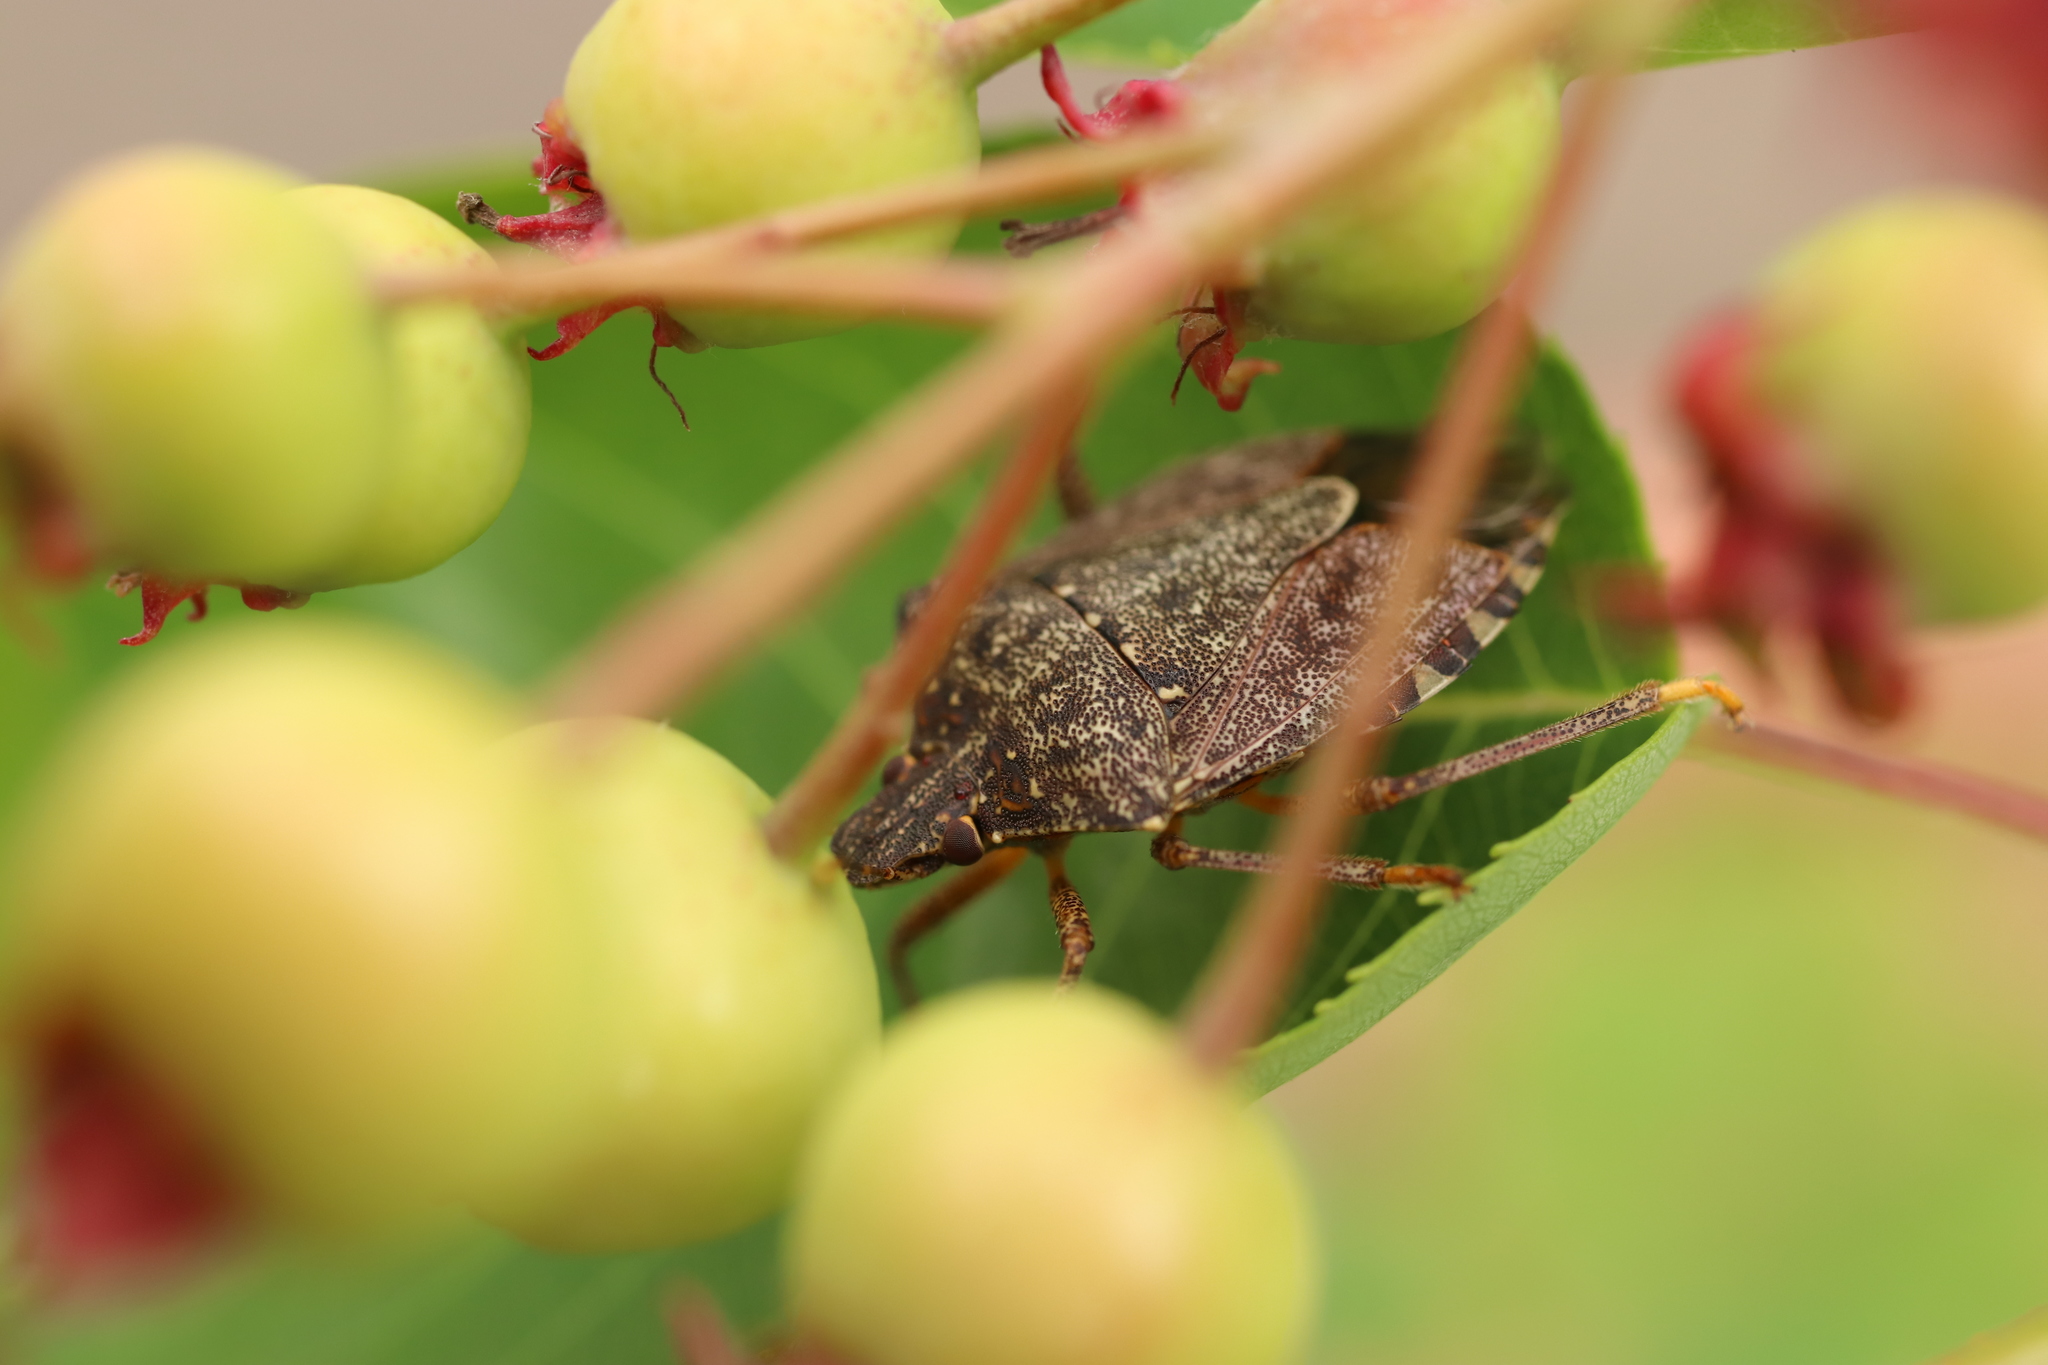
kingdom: Animalia
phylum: Arthropoda
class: Insecta
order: Hemiptera
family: Pentatomidae
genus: Halyomorpha
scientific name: Halyomorpha halys
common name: Brown marmorated stink bug
